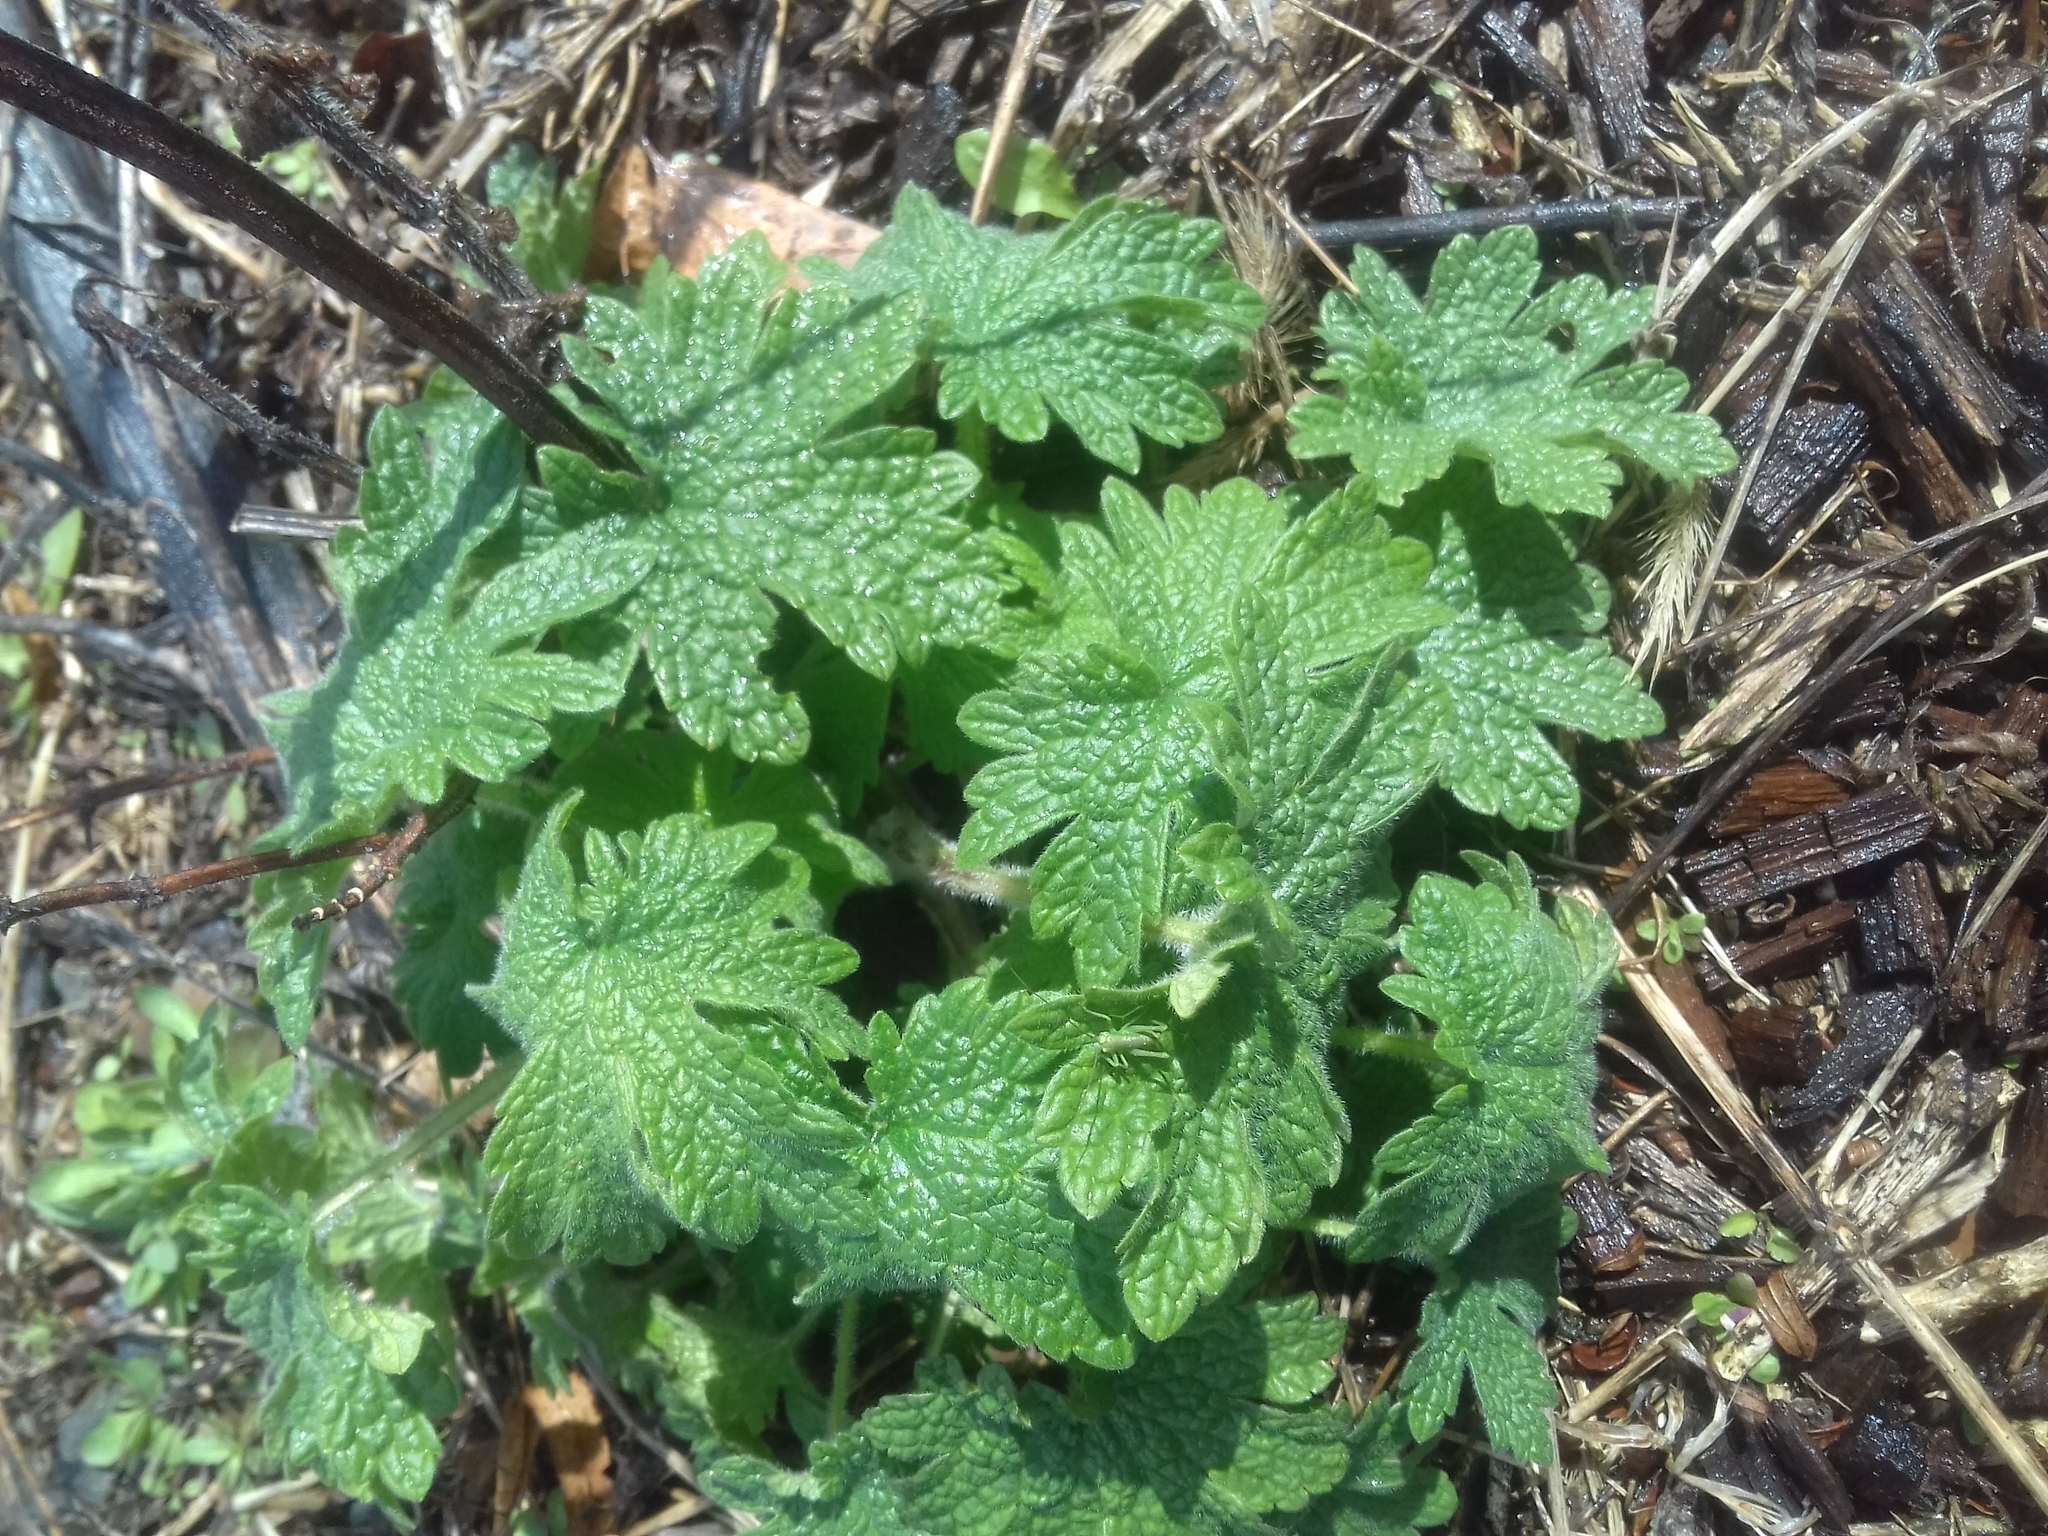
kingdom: Plantae
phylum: Tracheophyta
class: Magnoliopsida
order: Lamiales
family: Lamiaceae
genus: Leonurus
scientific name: Leonurus quinquelobatus
